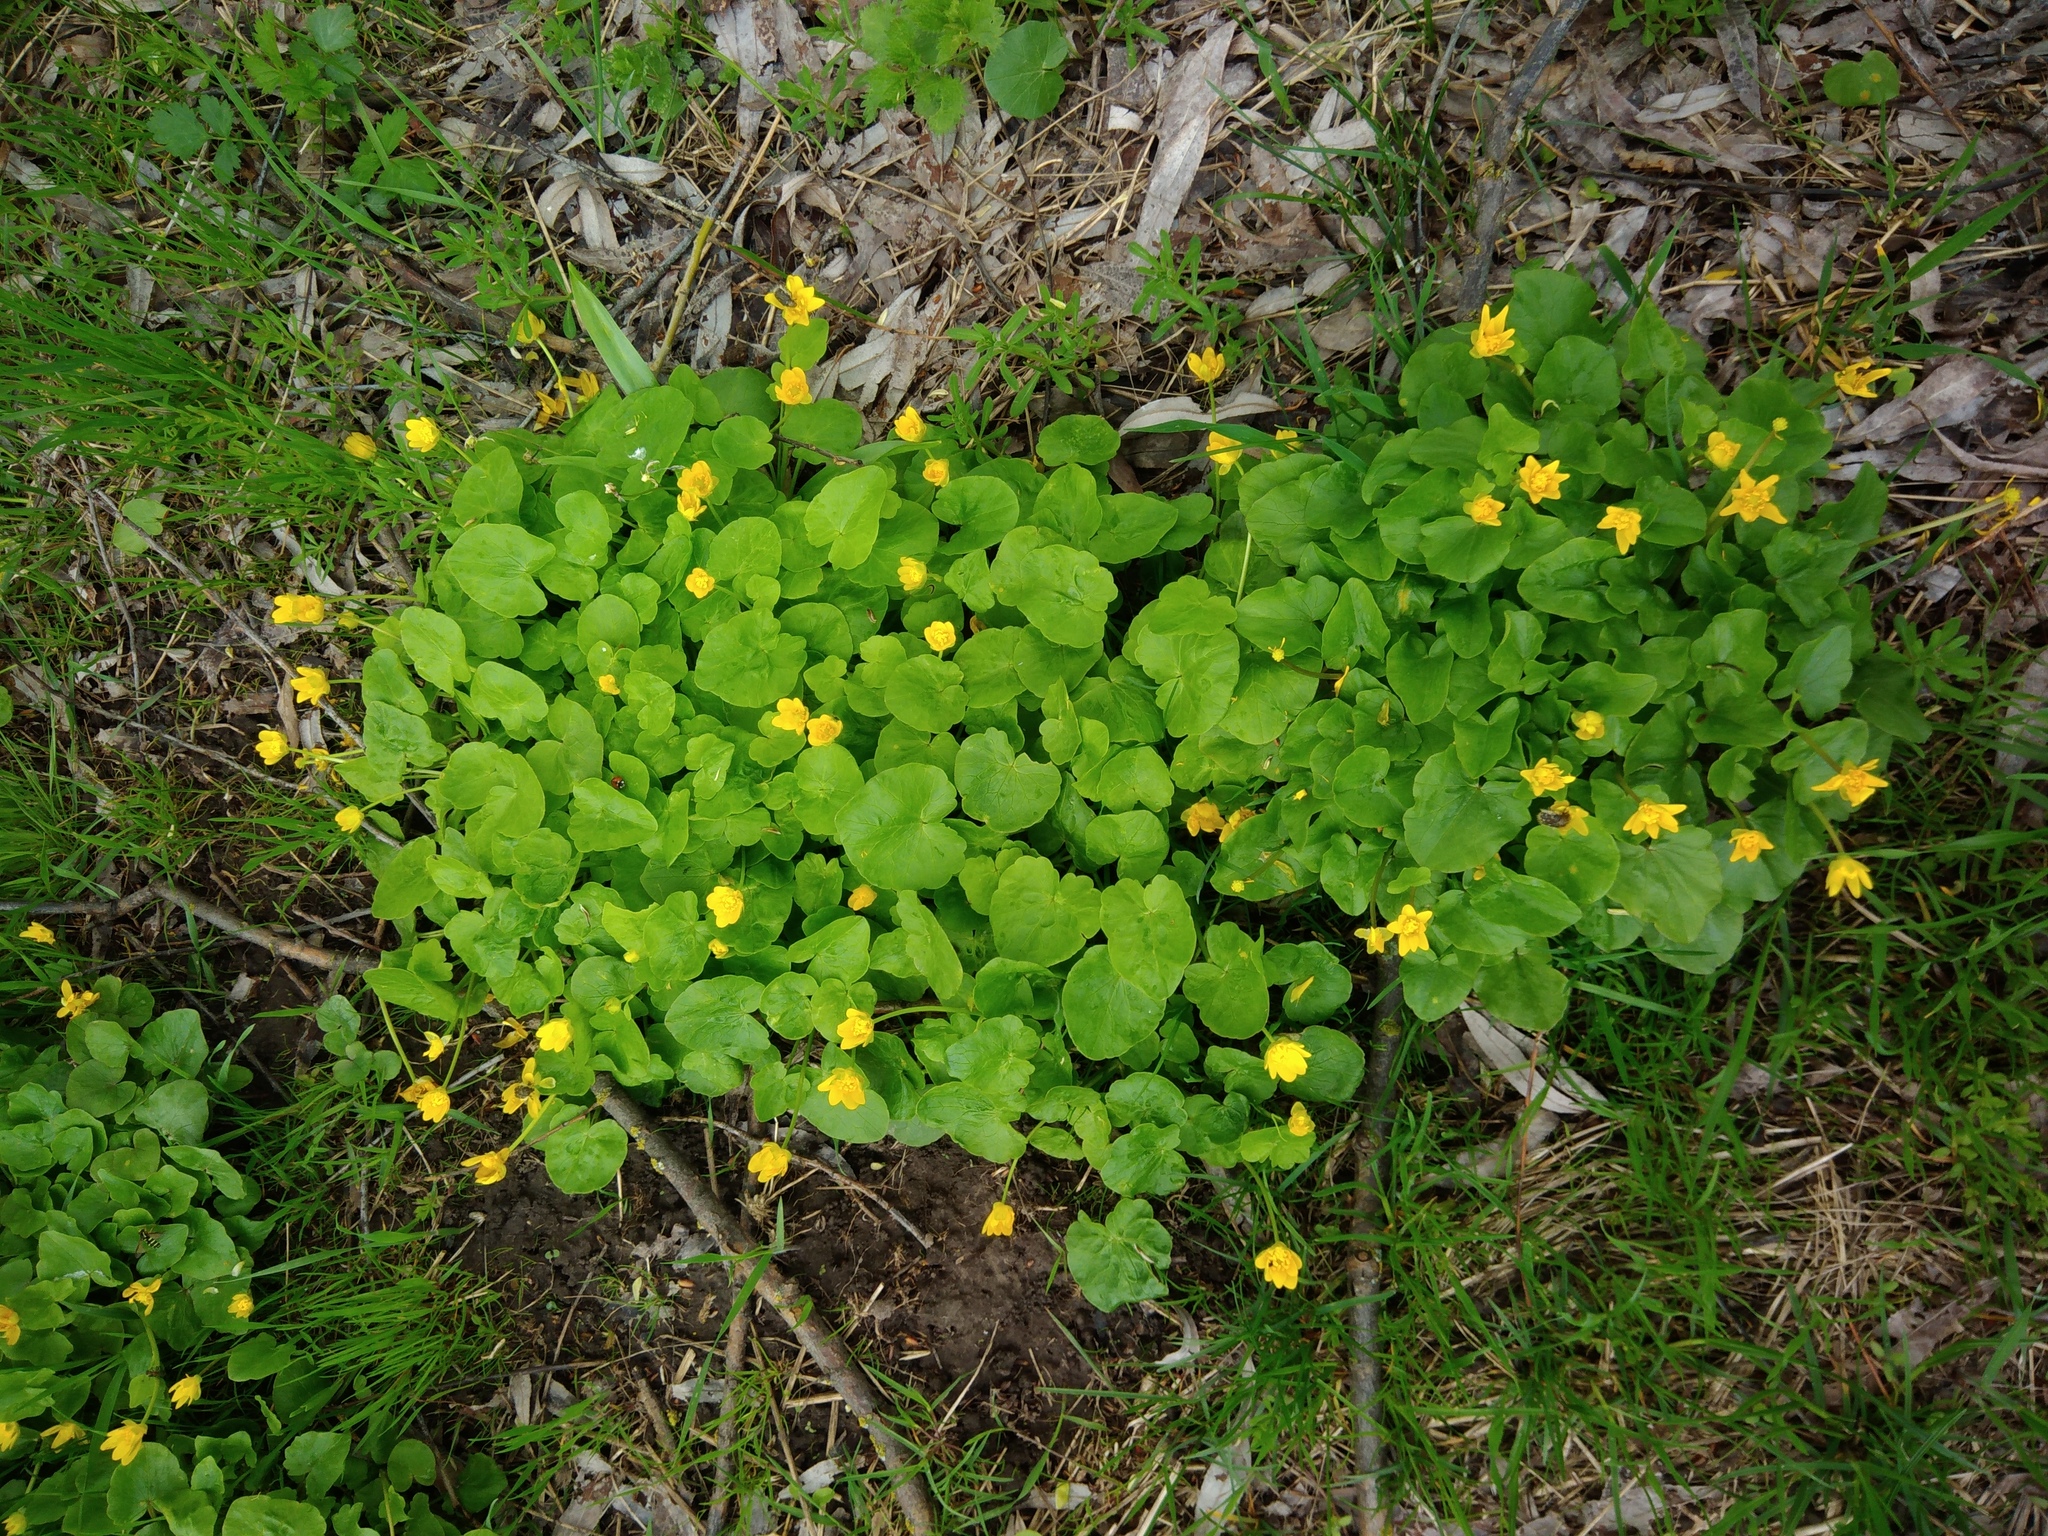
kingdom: Plantae
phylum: Tracheophyta
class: Magnoliopsida
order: Ranunculales
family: Ranunculaceae
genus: Ficaria
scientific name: Ficaria verna
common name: Lesser celandine
